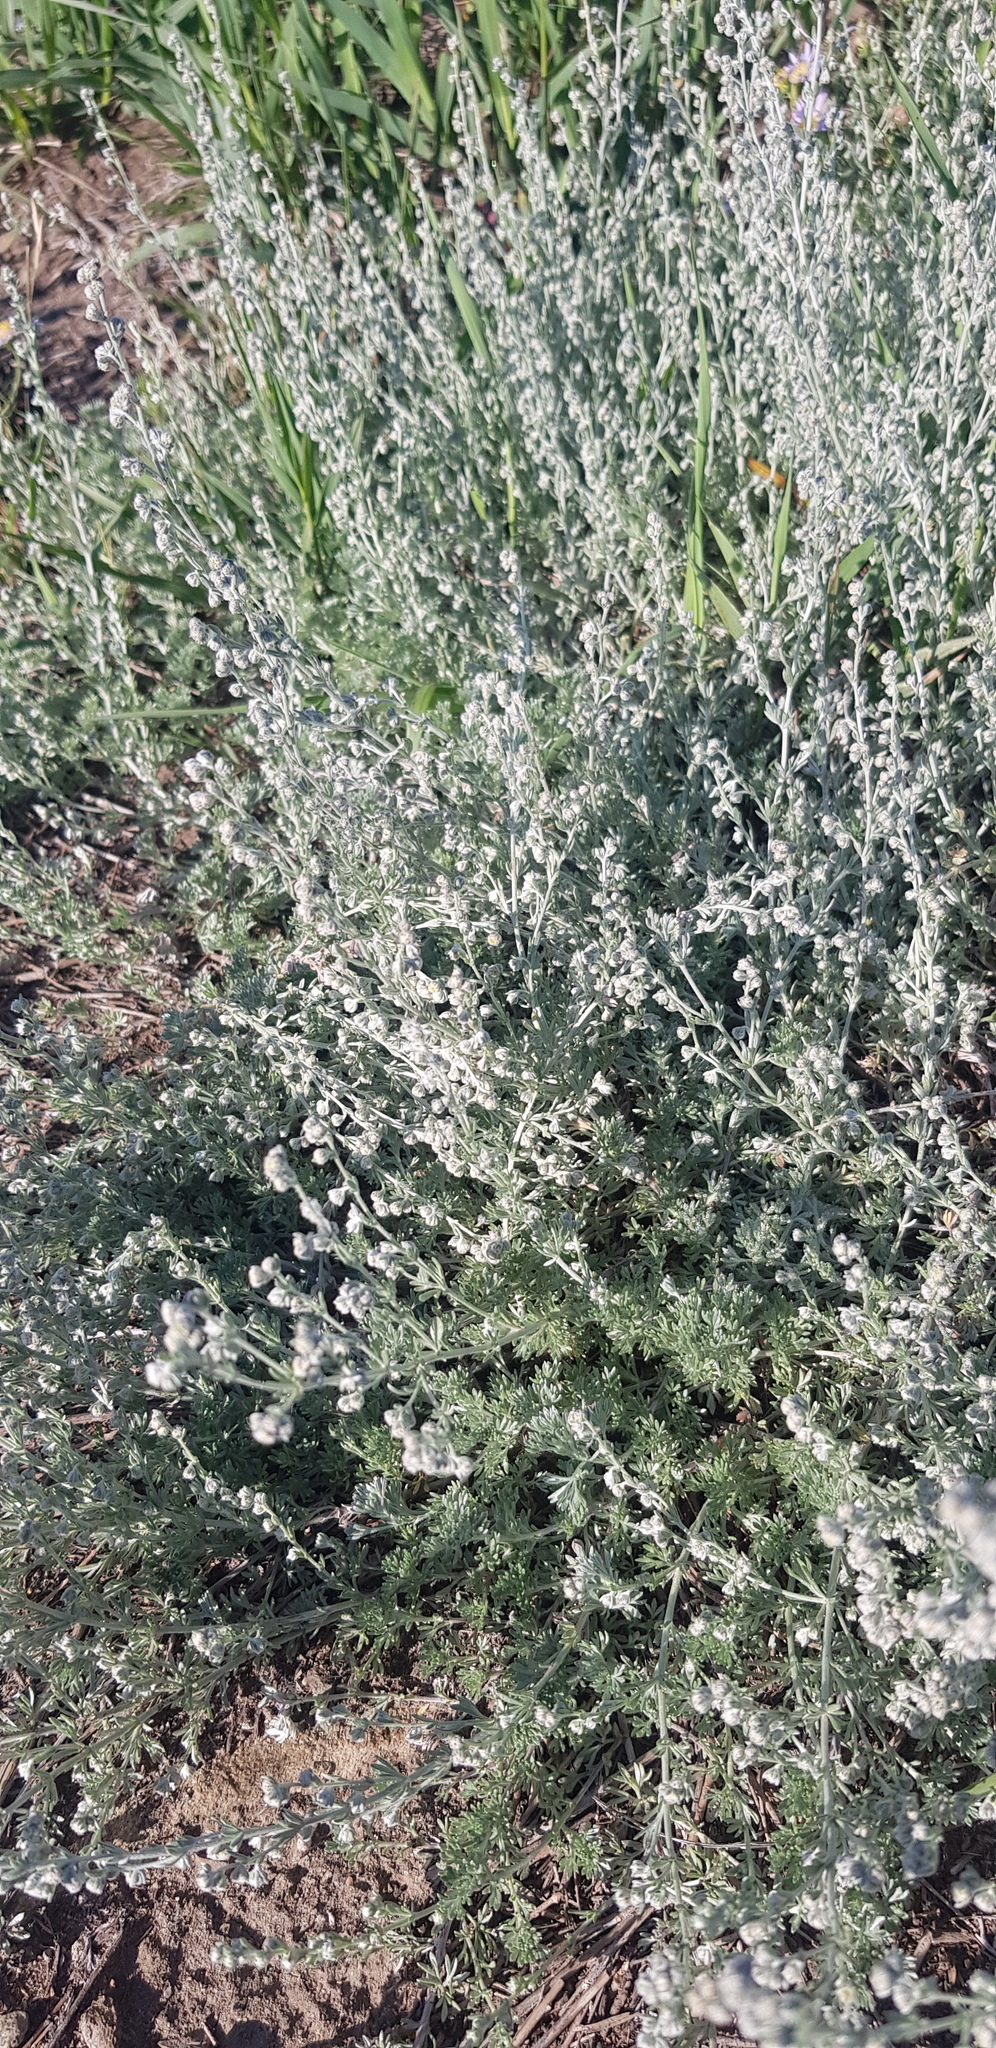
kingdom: Plantae
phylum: Tracheophyta
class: Magnoliopsida
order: Asterales
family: Asteraceae
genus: Artemisia
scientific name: Artemisia frigida
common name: Prairie sagewort
